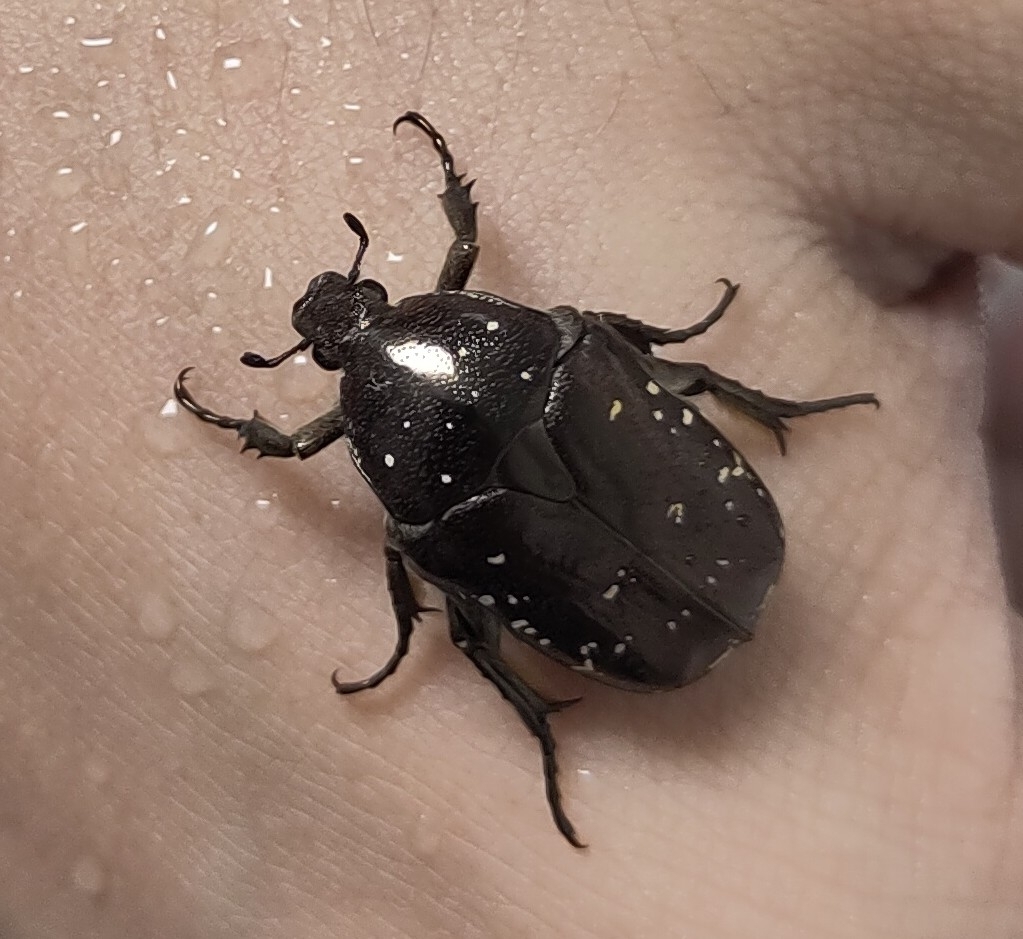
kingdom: Animalia
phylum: Arthropoda
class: Insecta
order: Coleoptera
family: Scarabaeidae
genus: Protaetia
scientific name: Protaetia orientalis
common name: Oriental flower beetle
